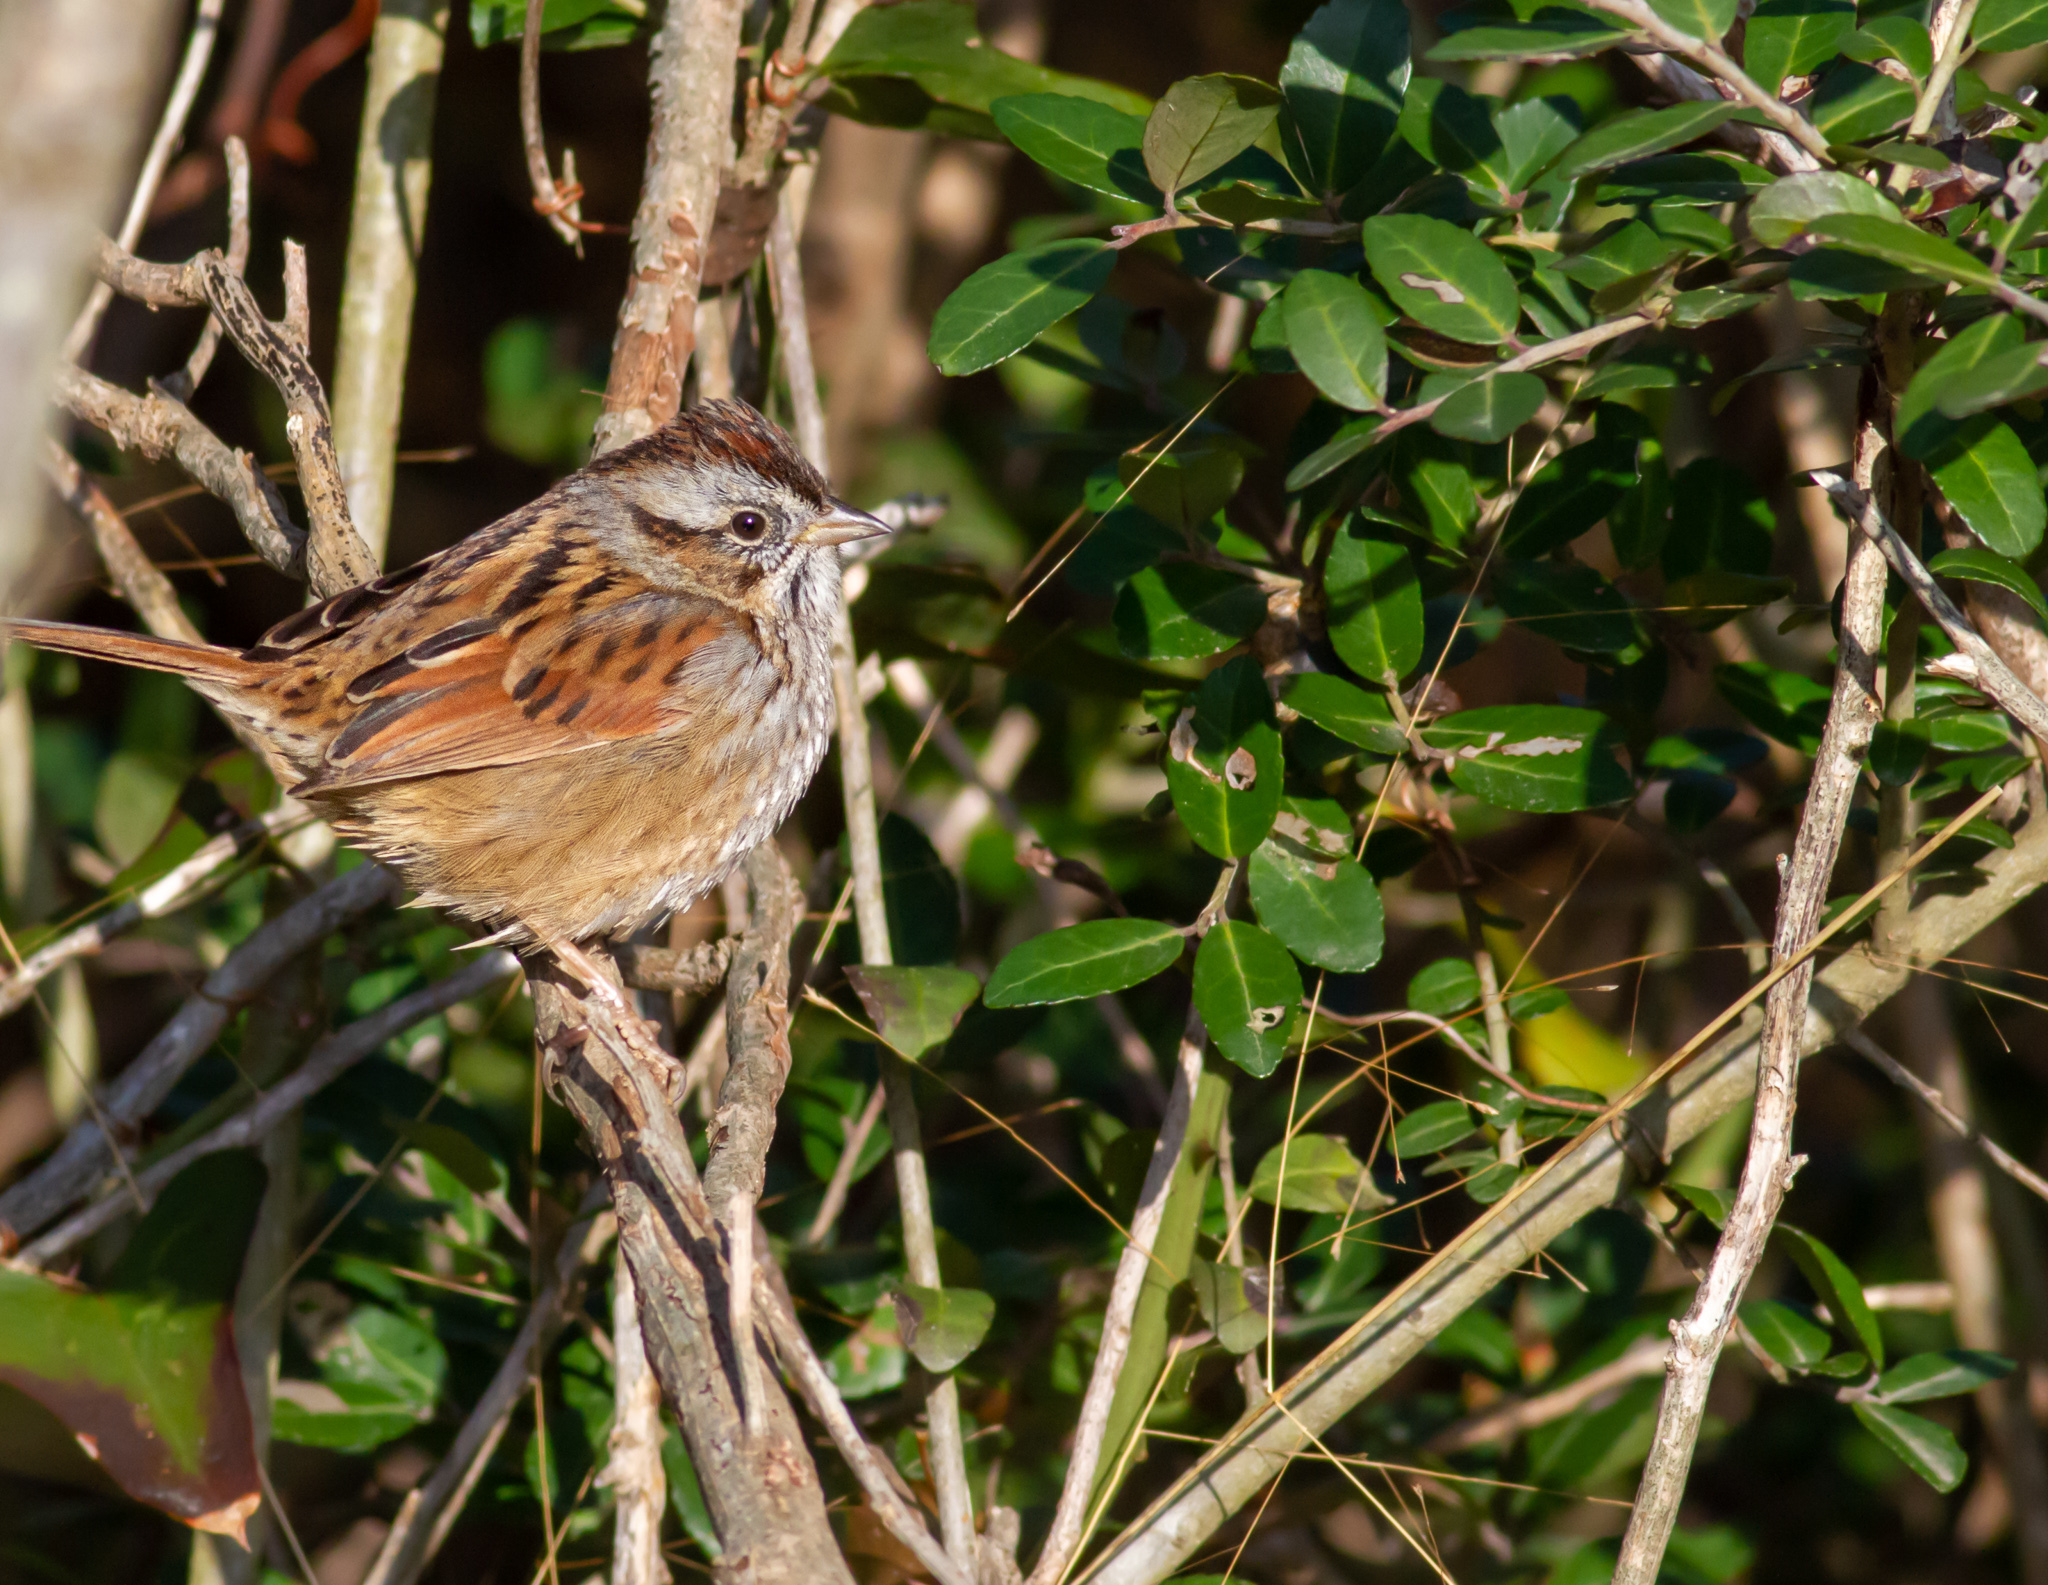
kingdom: Animalia
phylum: Chordata
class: Aves
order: Passeriformes
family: Passerellidae
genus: Melospiza
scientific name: Melospiza georgiana
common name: Swamp sparrow
